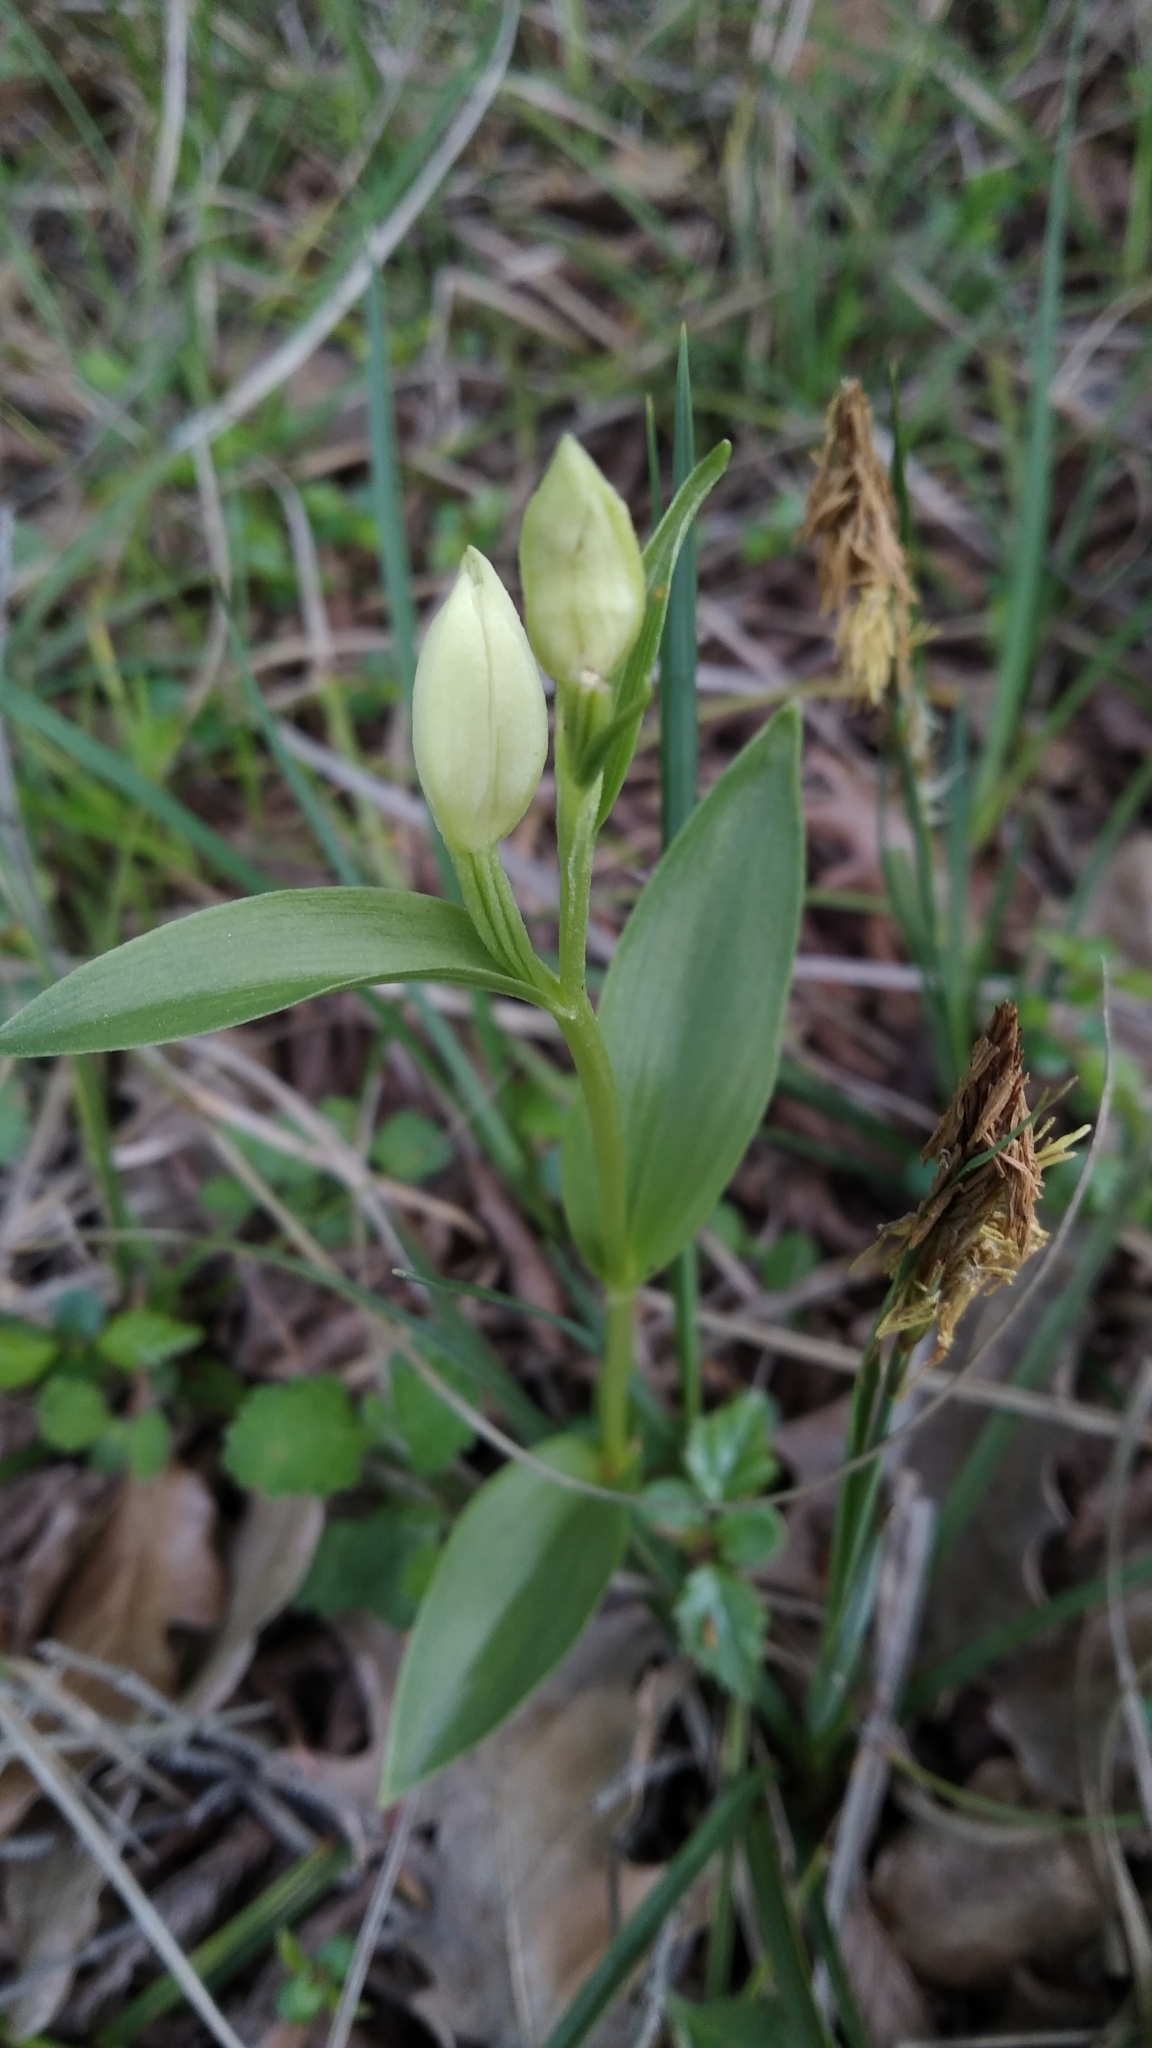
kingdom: Plantae
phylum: Tracheophyta
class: Liliopsida
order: Asparagales
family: Orchidaceae
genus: Cephalanthera
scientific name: Cephalanthera damasonium
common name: White helleborine
